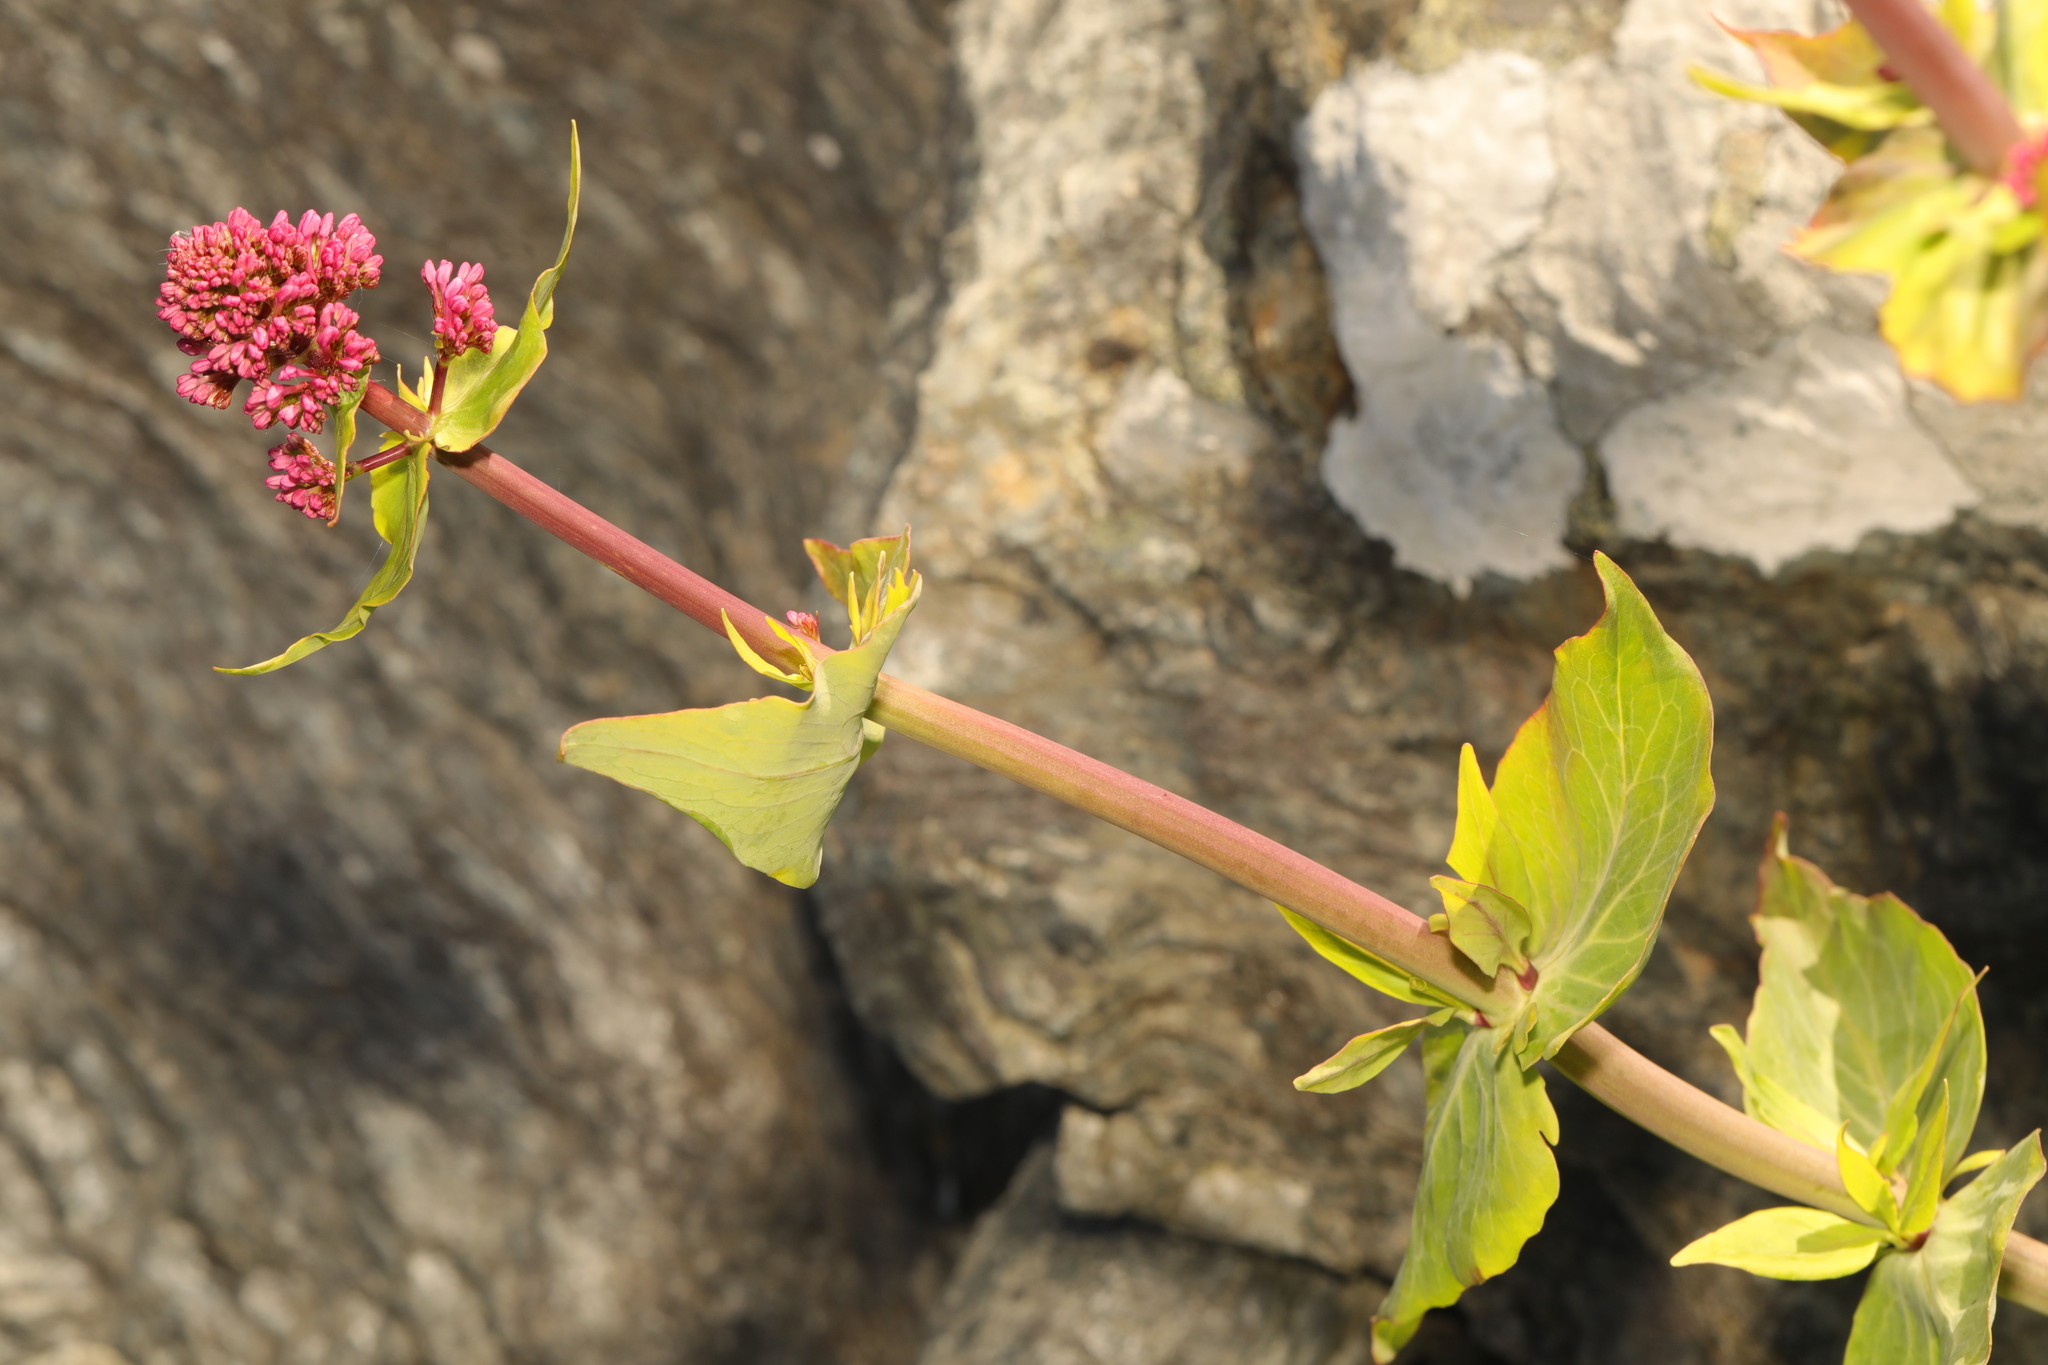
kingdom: Plantae
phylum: Tracheophyta
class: Magnoliopsida
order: Dipsacales
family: Caprifoliaceae
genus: Centranthus
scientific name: Centranthus ruber
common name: Red valerian
